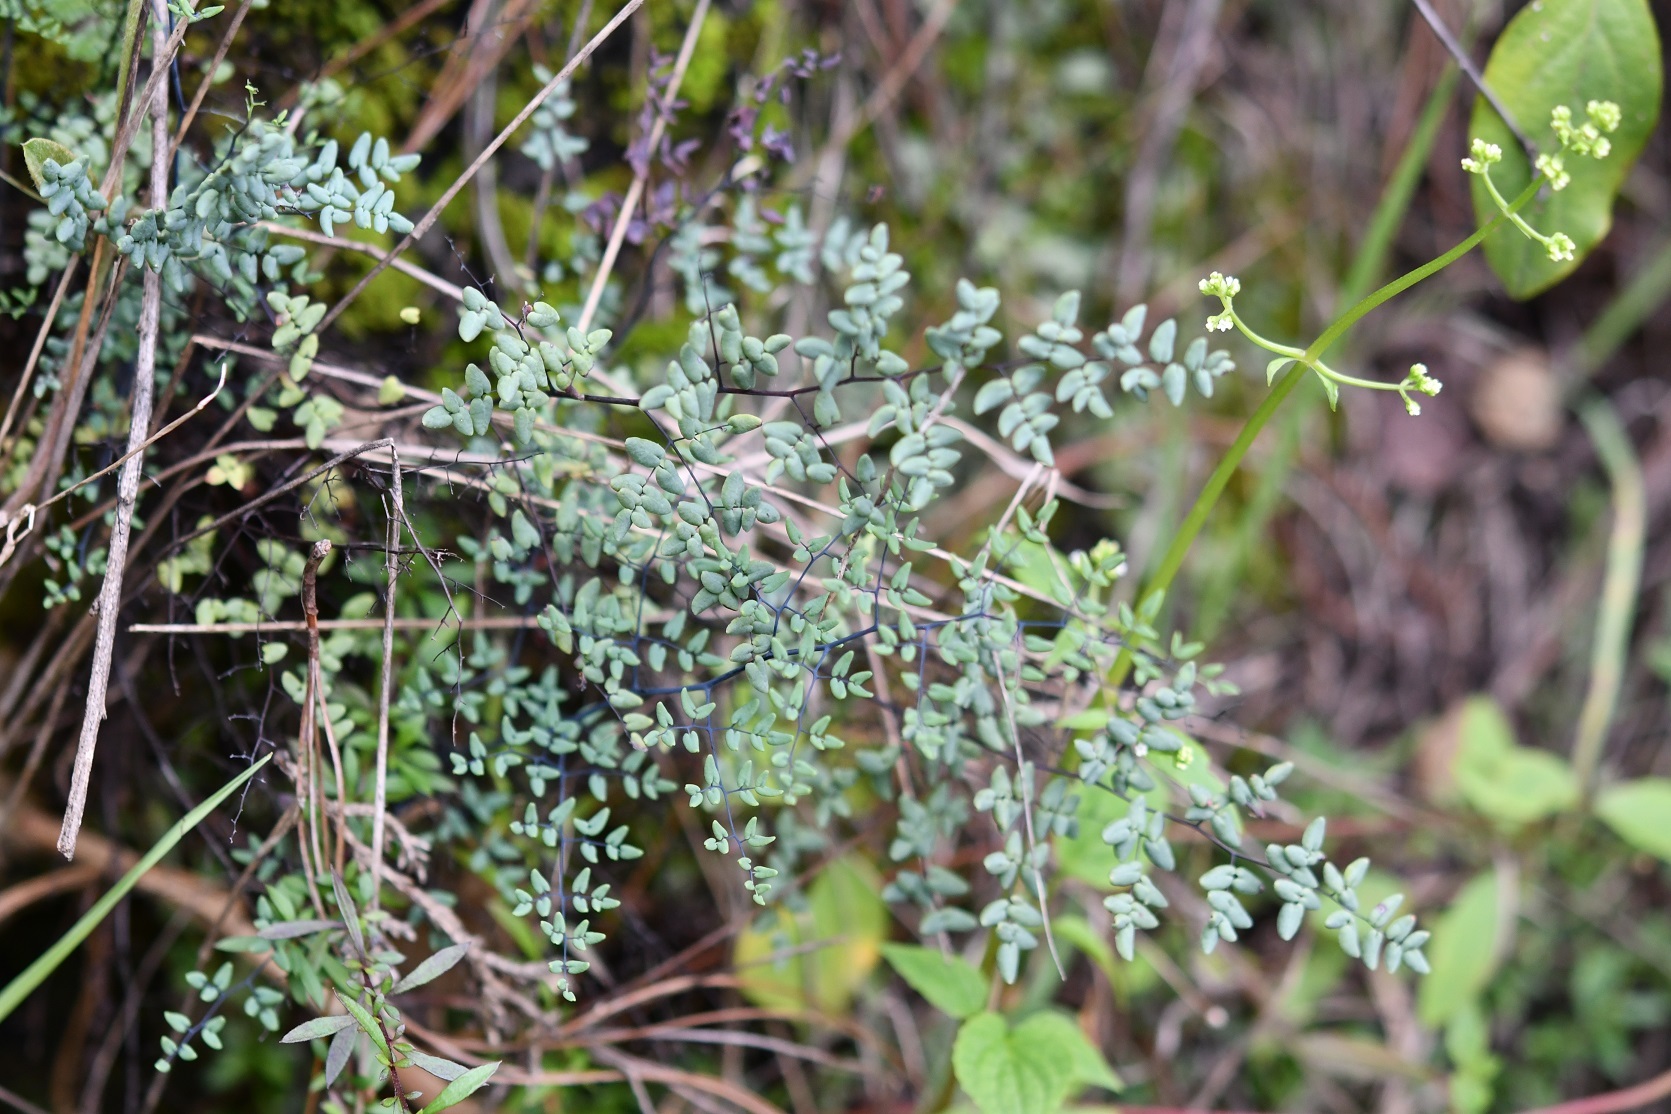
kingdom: Plantae
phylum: Tracheophyta
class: Polypodiopsida
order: Polypodiales
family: Pteridaceae
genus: Argyrochosma
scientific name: Argyrochosma formosa
